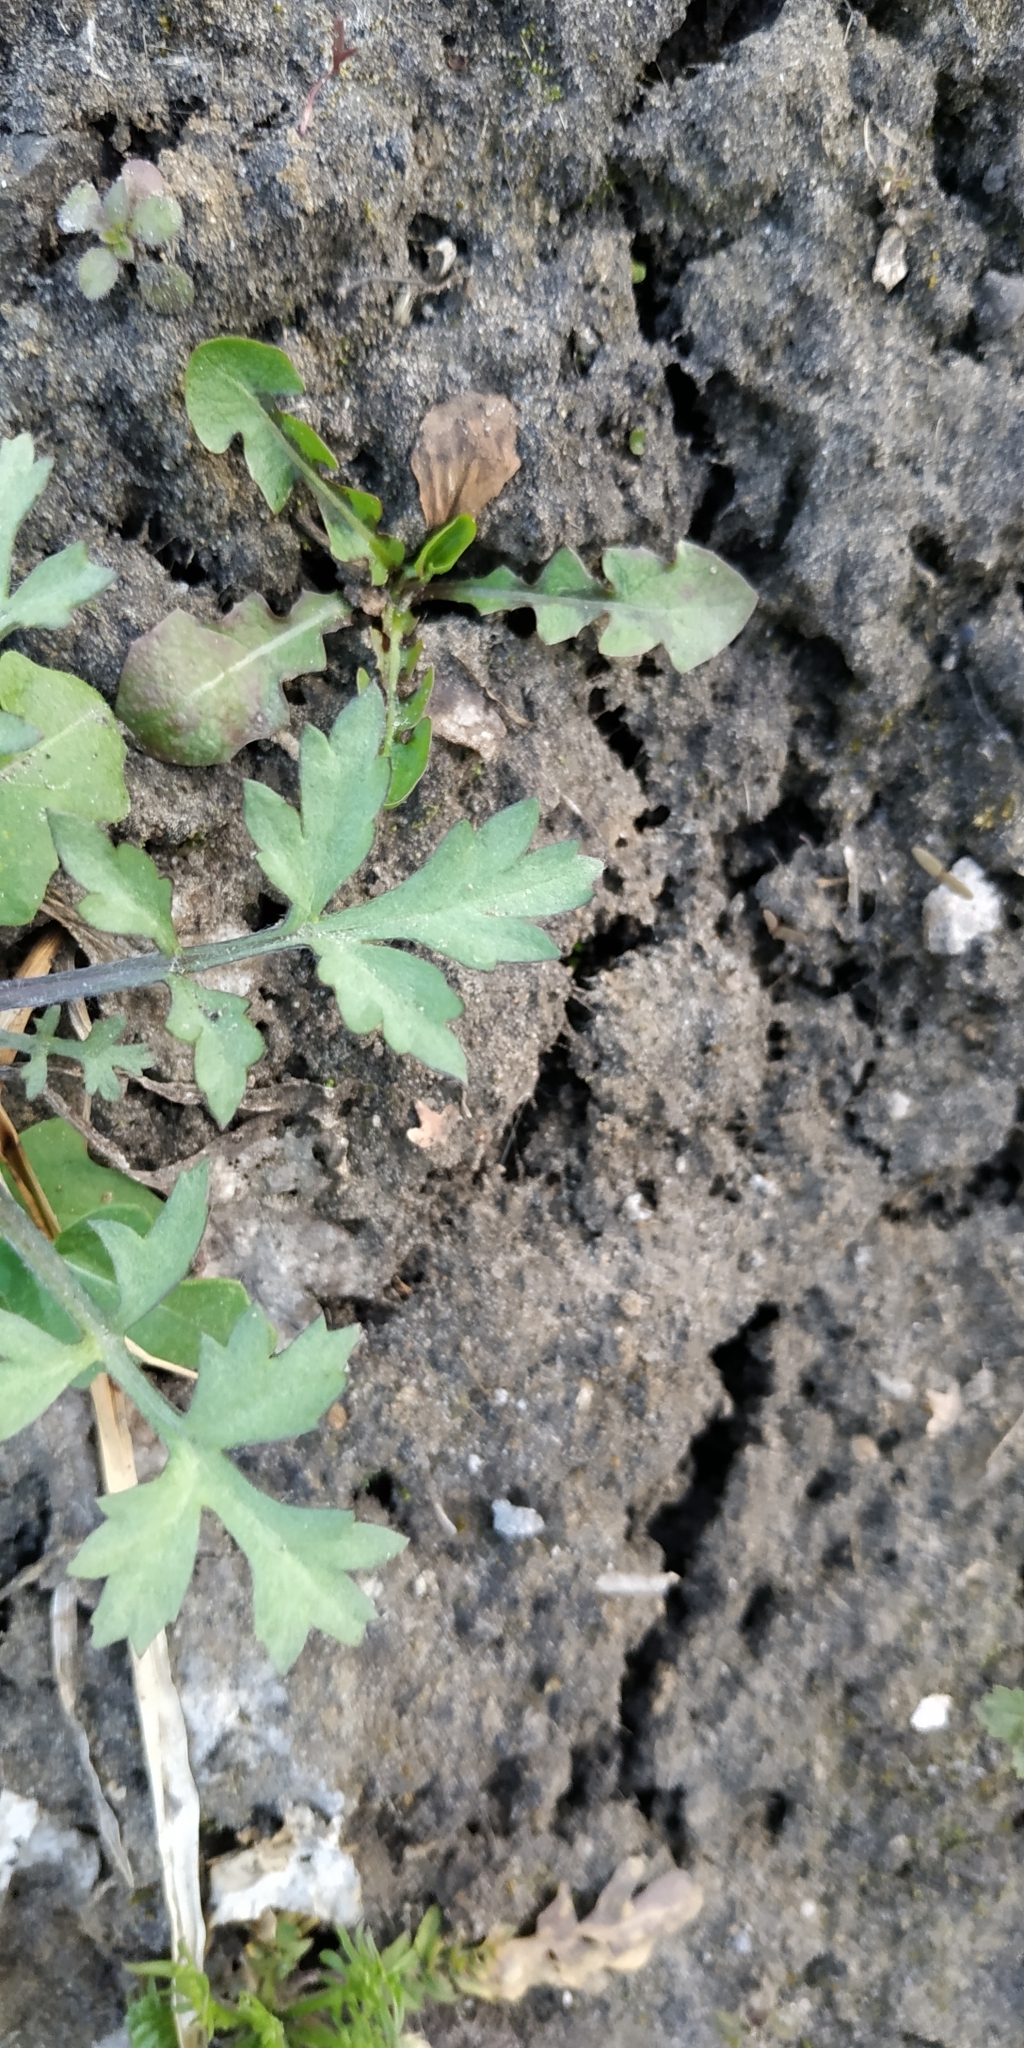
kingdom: Plantae
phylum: Tracheophyta
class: Magnoliopsida
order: Asterales
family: Asteraceae
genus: Artemisia
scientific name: Artemisia vulgaris
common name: Mugwort
